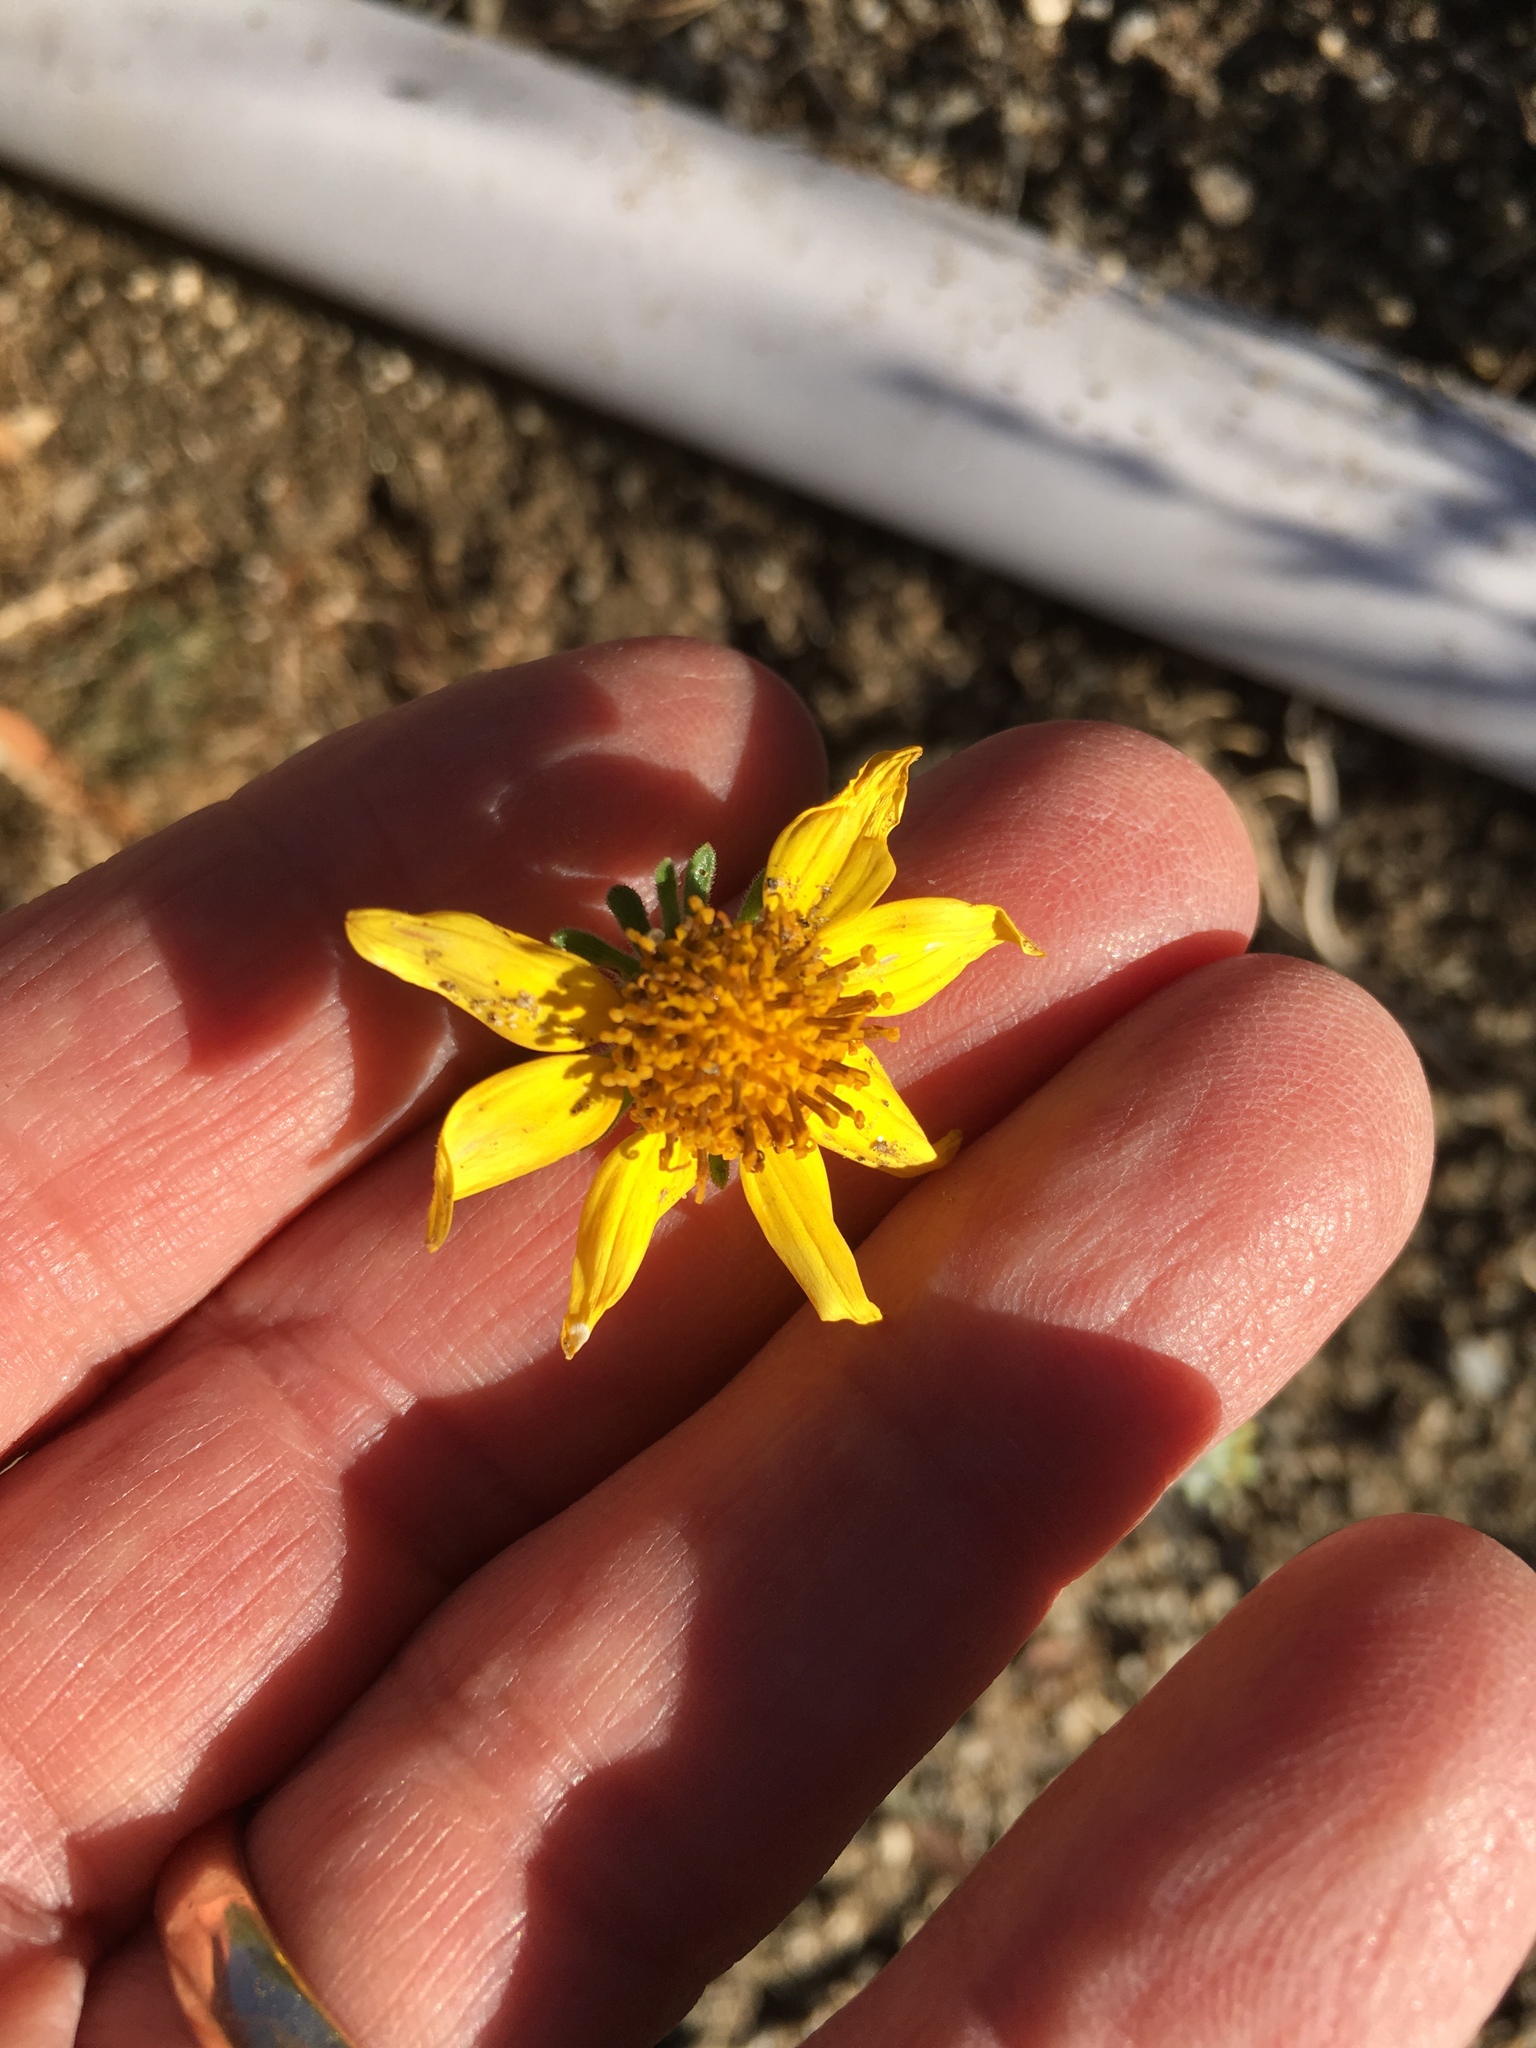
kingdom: Plantae
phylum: Tracheophyta
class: Magnoliopsida
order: Asterales
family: Asteraceae
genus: Bahiopsis
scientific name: Bahiopsis parishii
